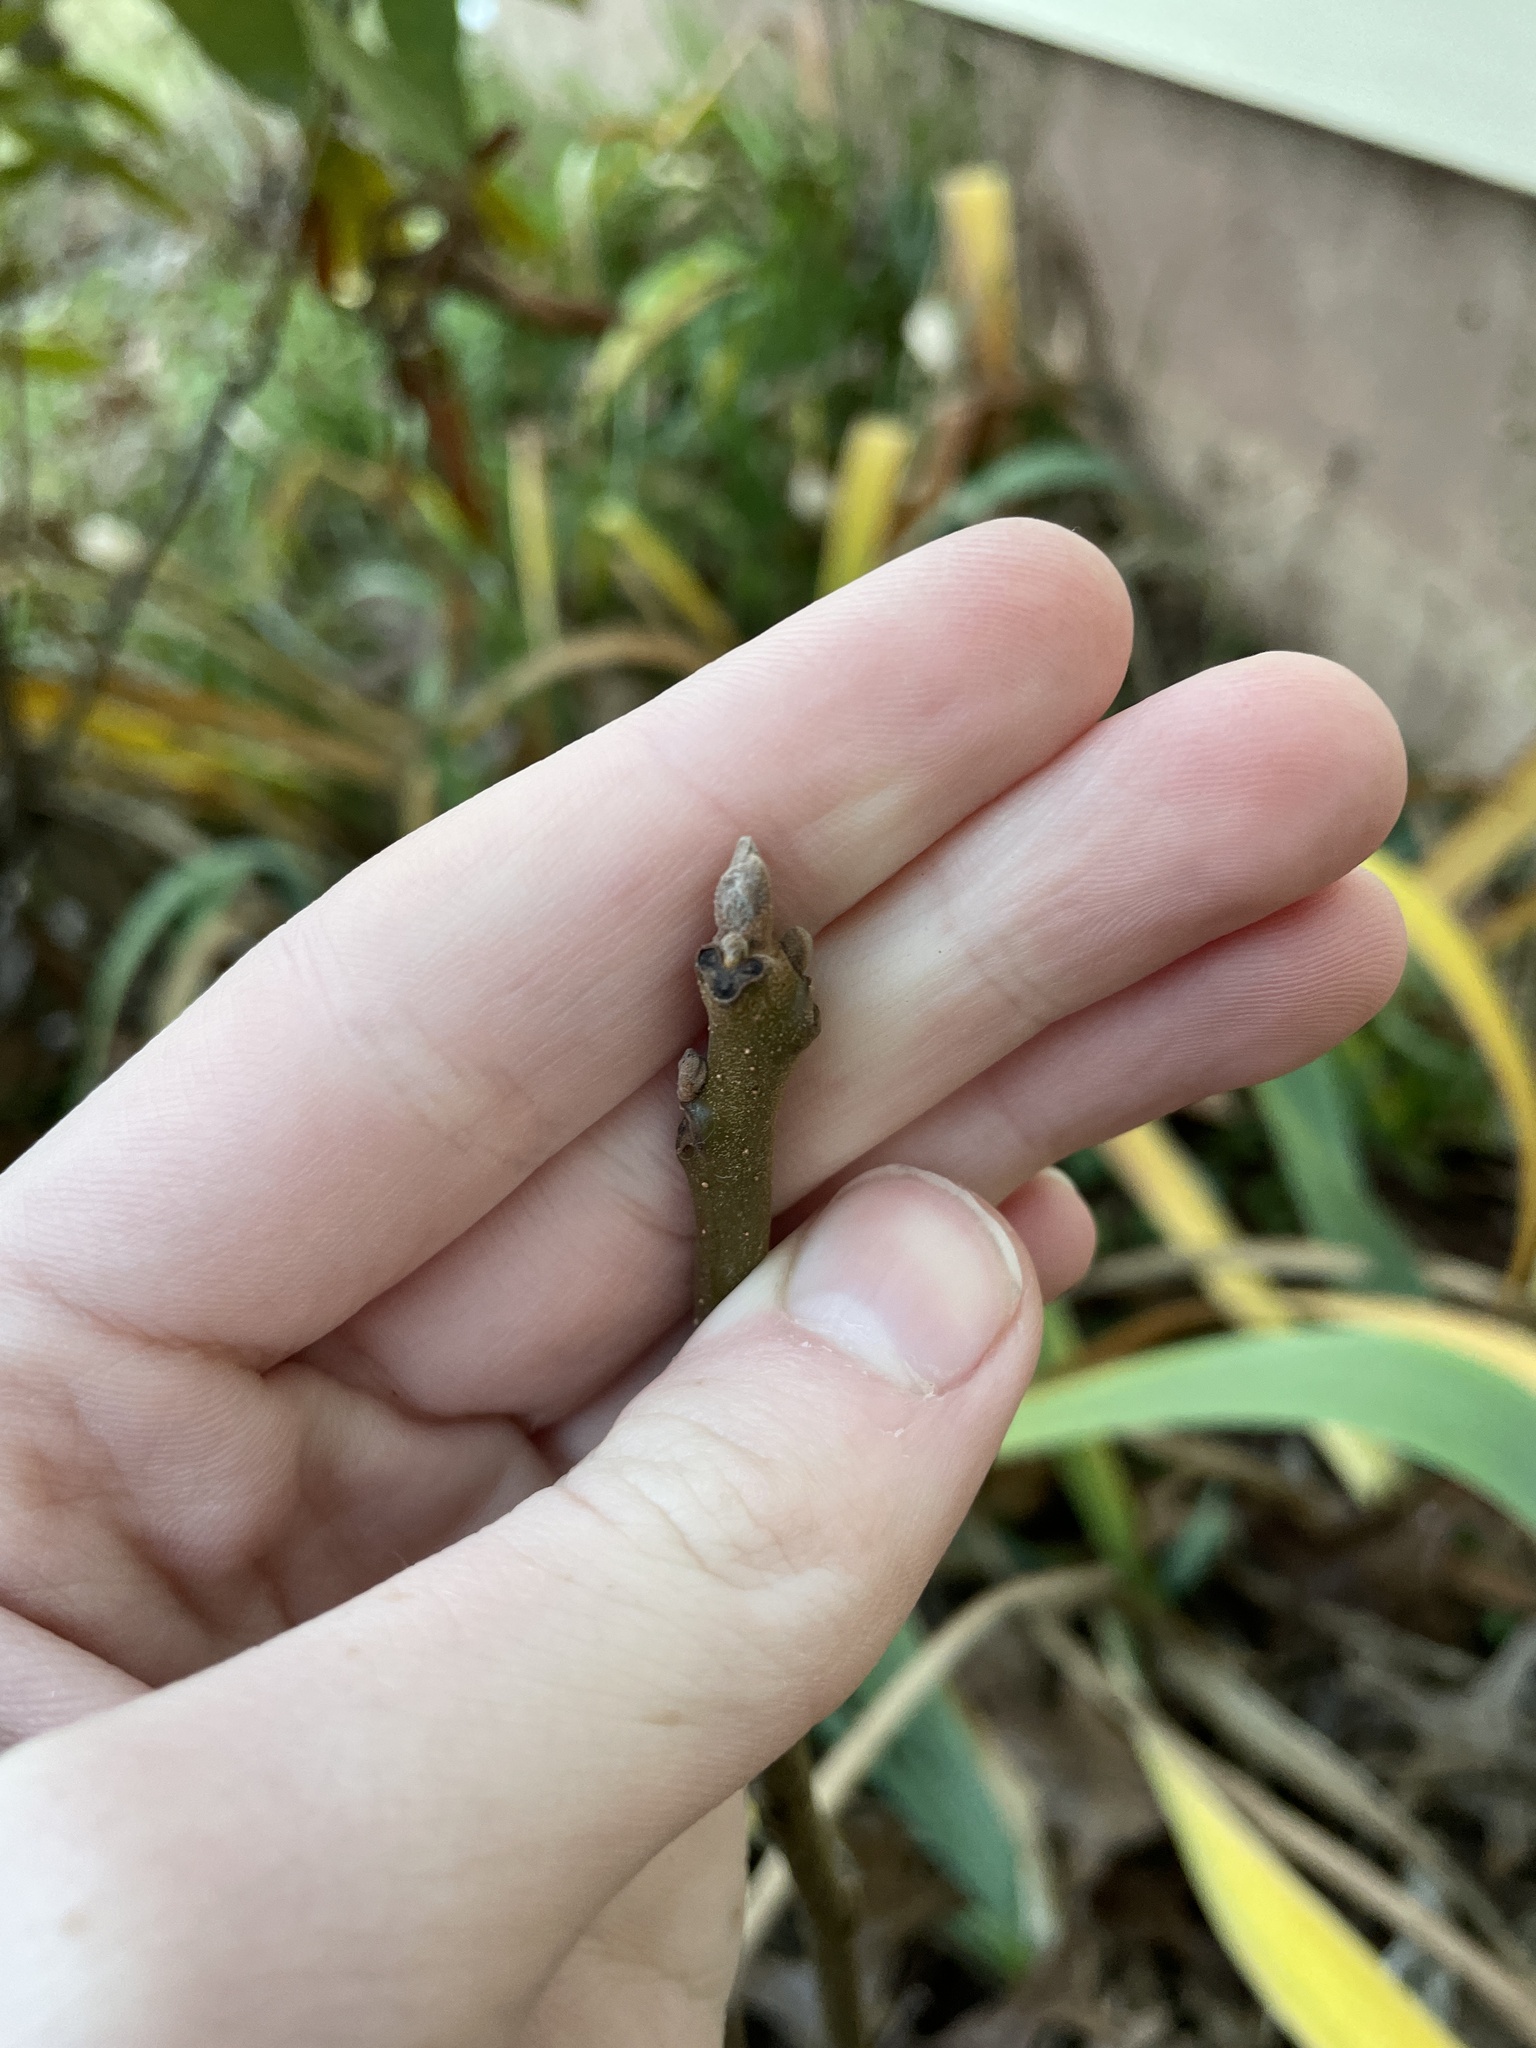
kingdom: Plantae
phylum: Tracheophyta
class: Magnoliopsida
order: Fagales
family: Juglandaceae
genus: Juglans
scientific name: Juglans nigra
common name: Black walnut
